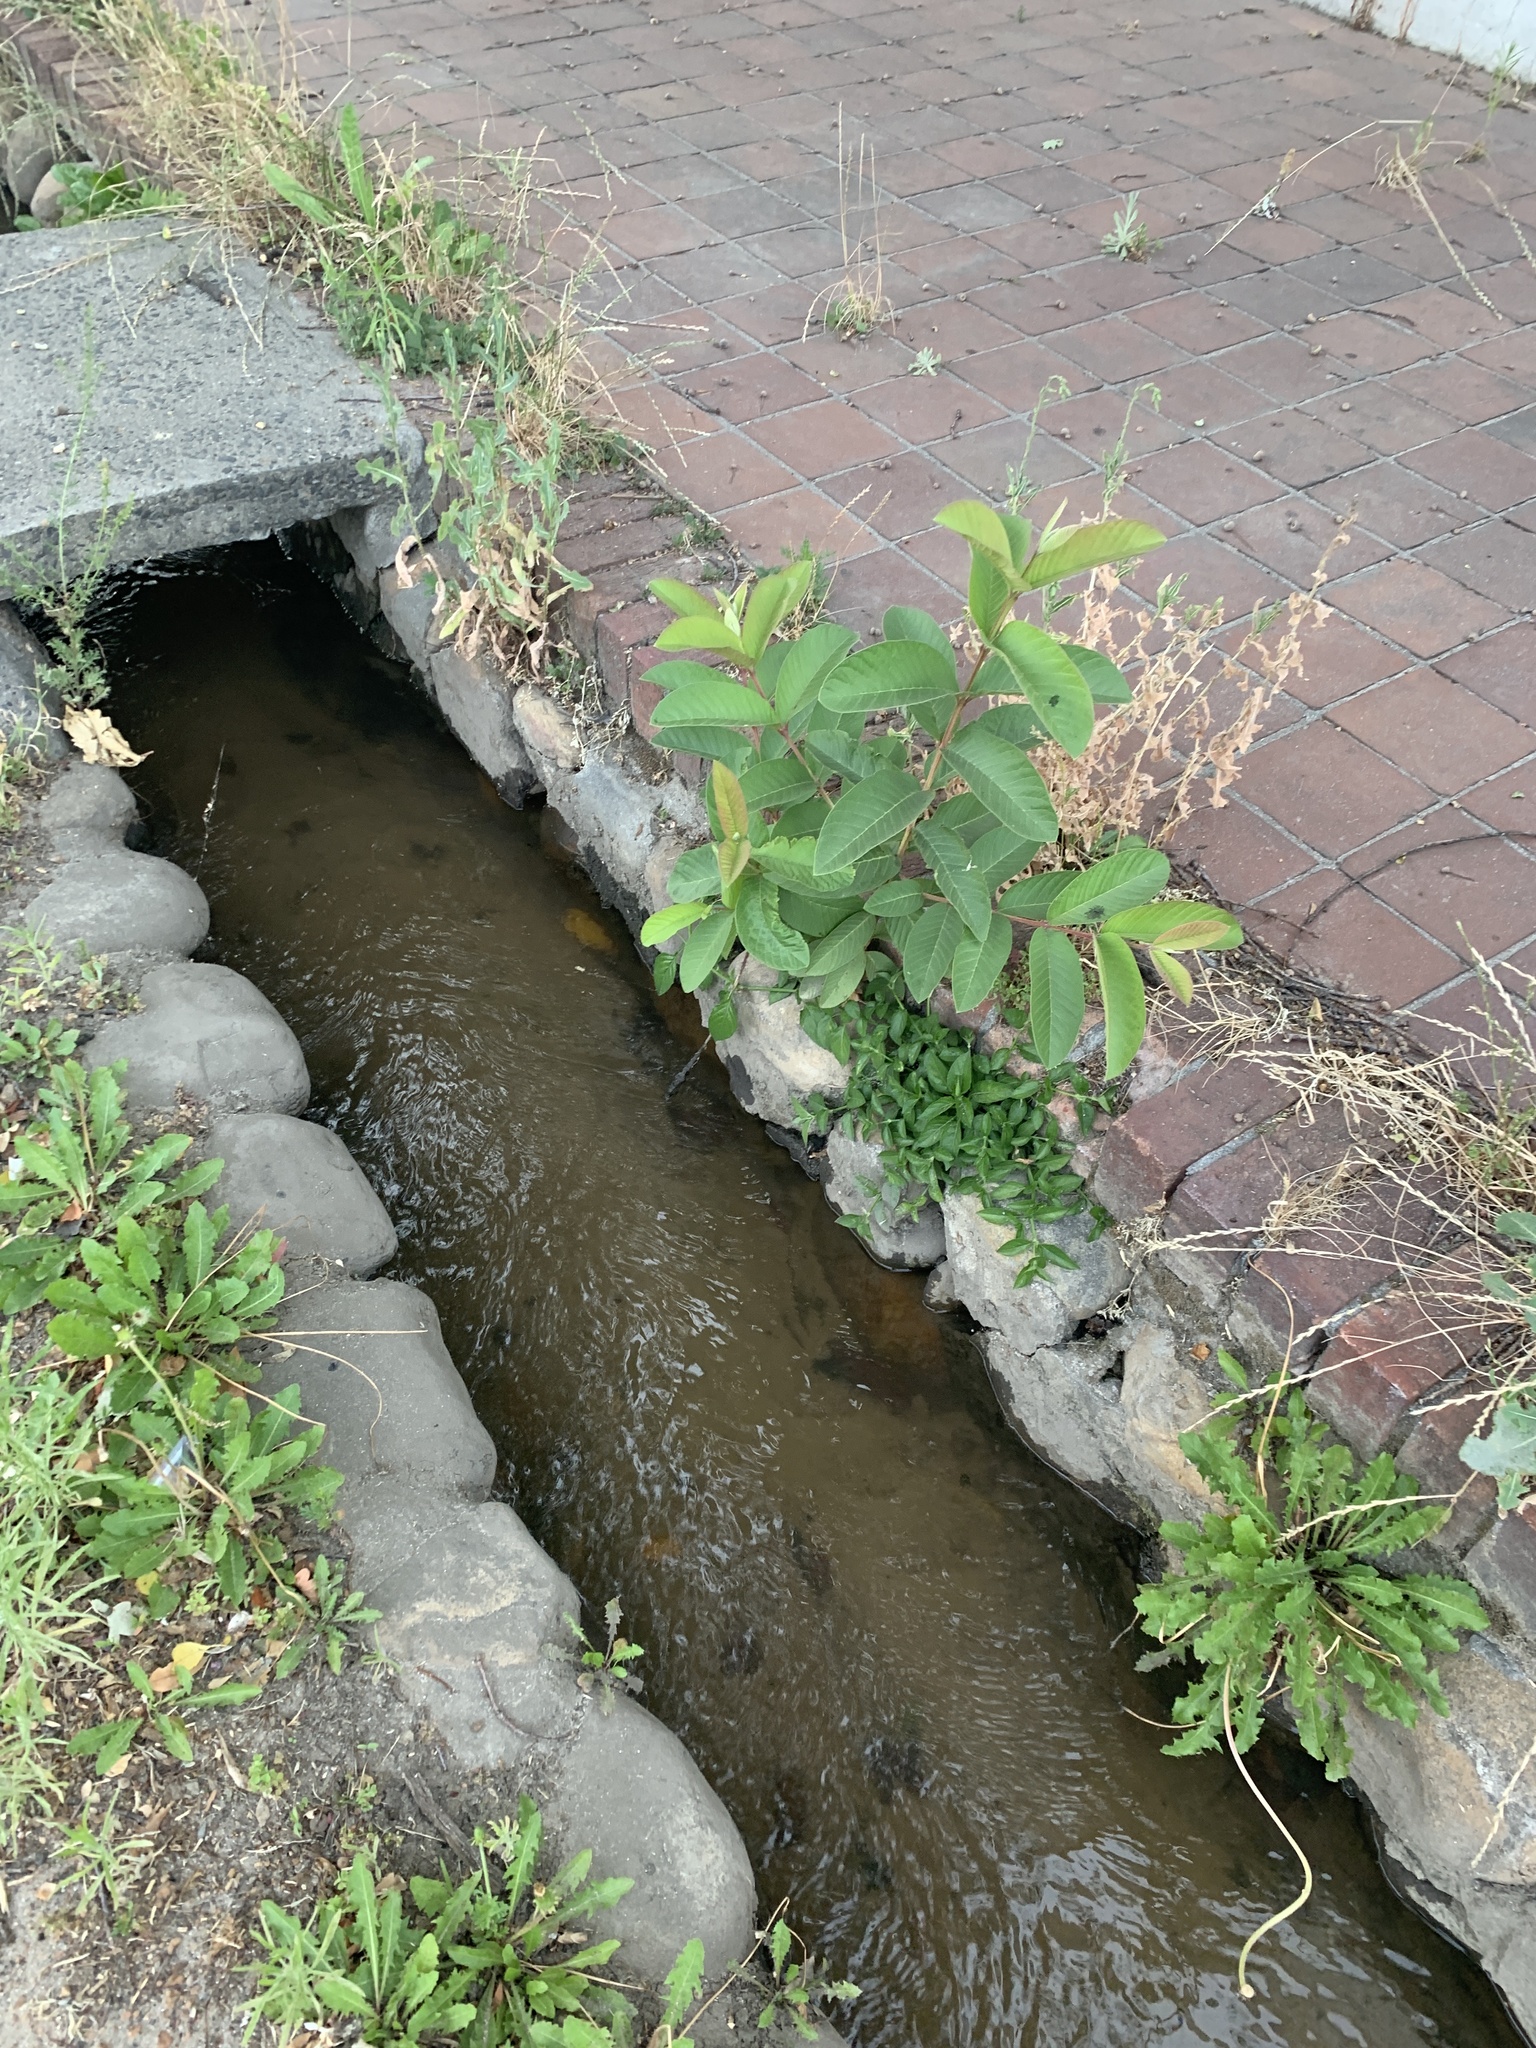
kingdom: Plantae
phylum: Tracheophyta
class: Magnoliopsida
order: Myrtales
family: Myrtaceae
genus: Psidium
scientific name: Psidium guajava
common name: Guava
